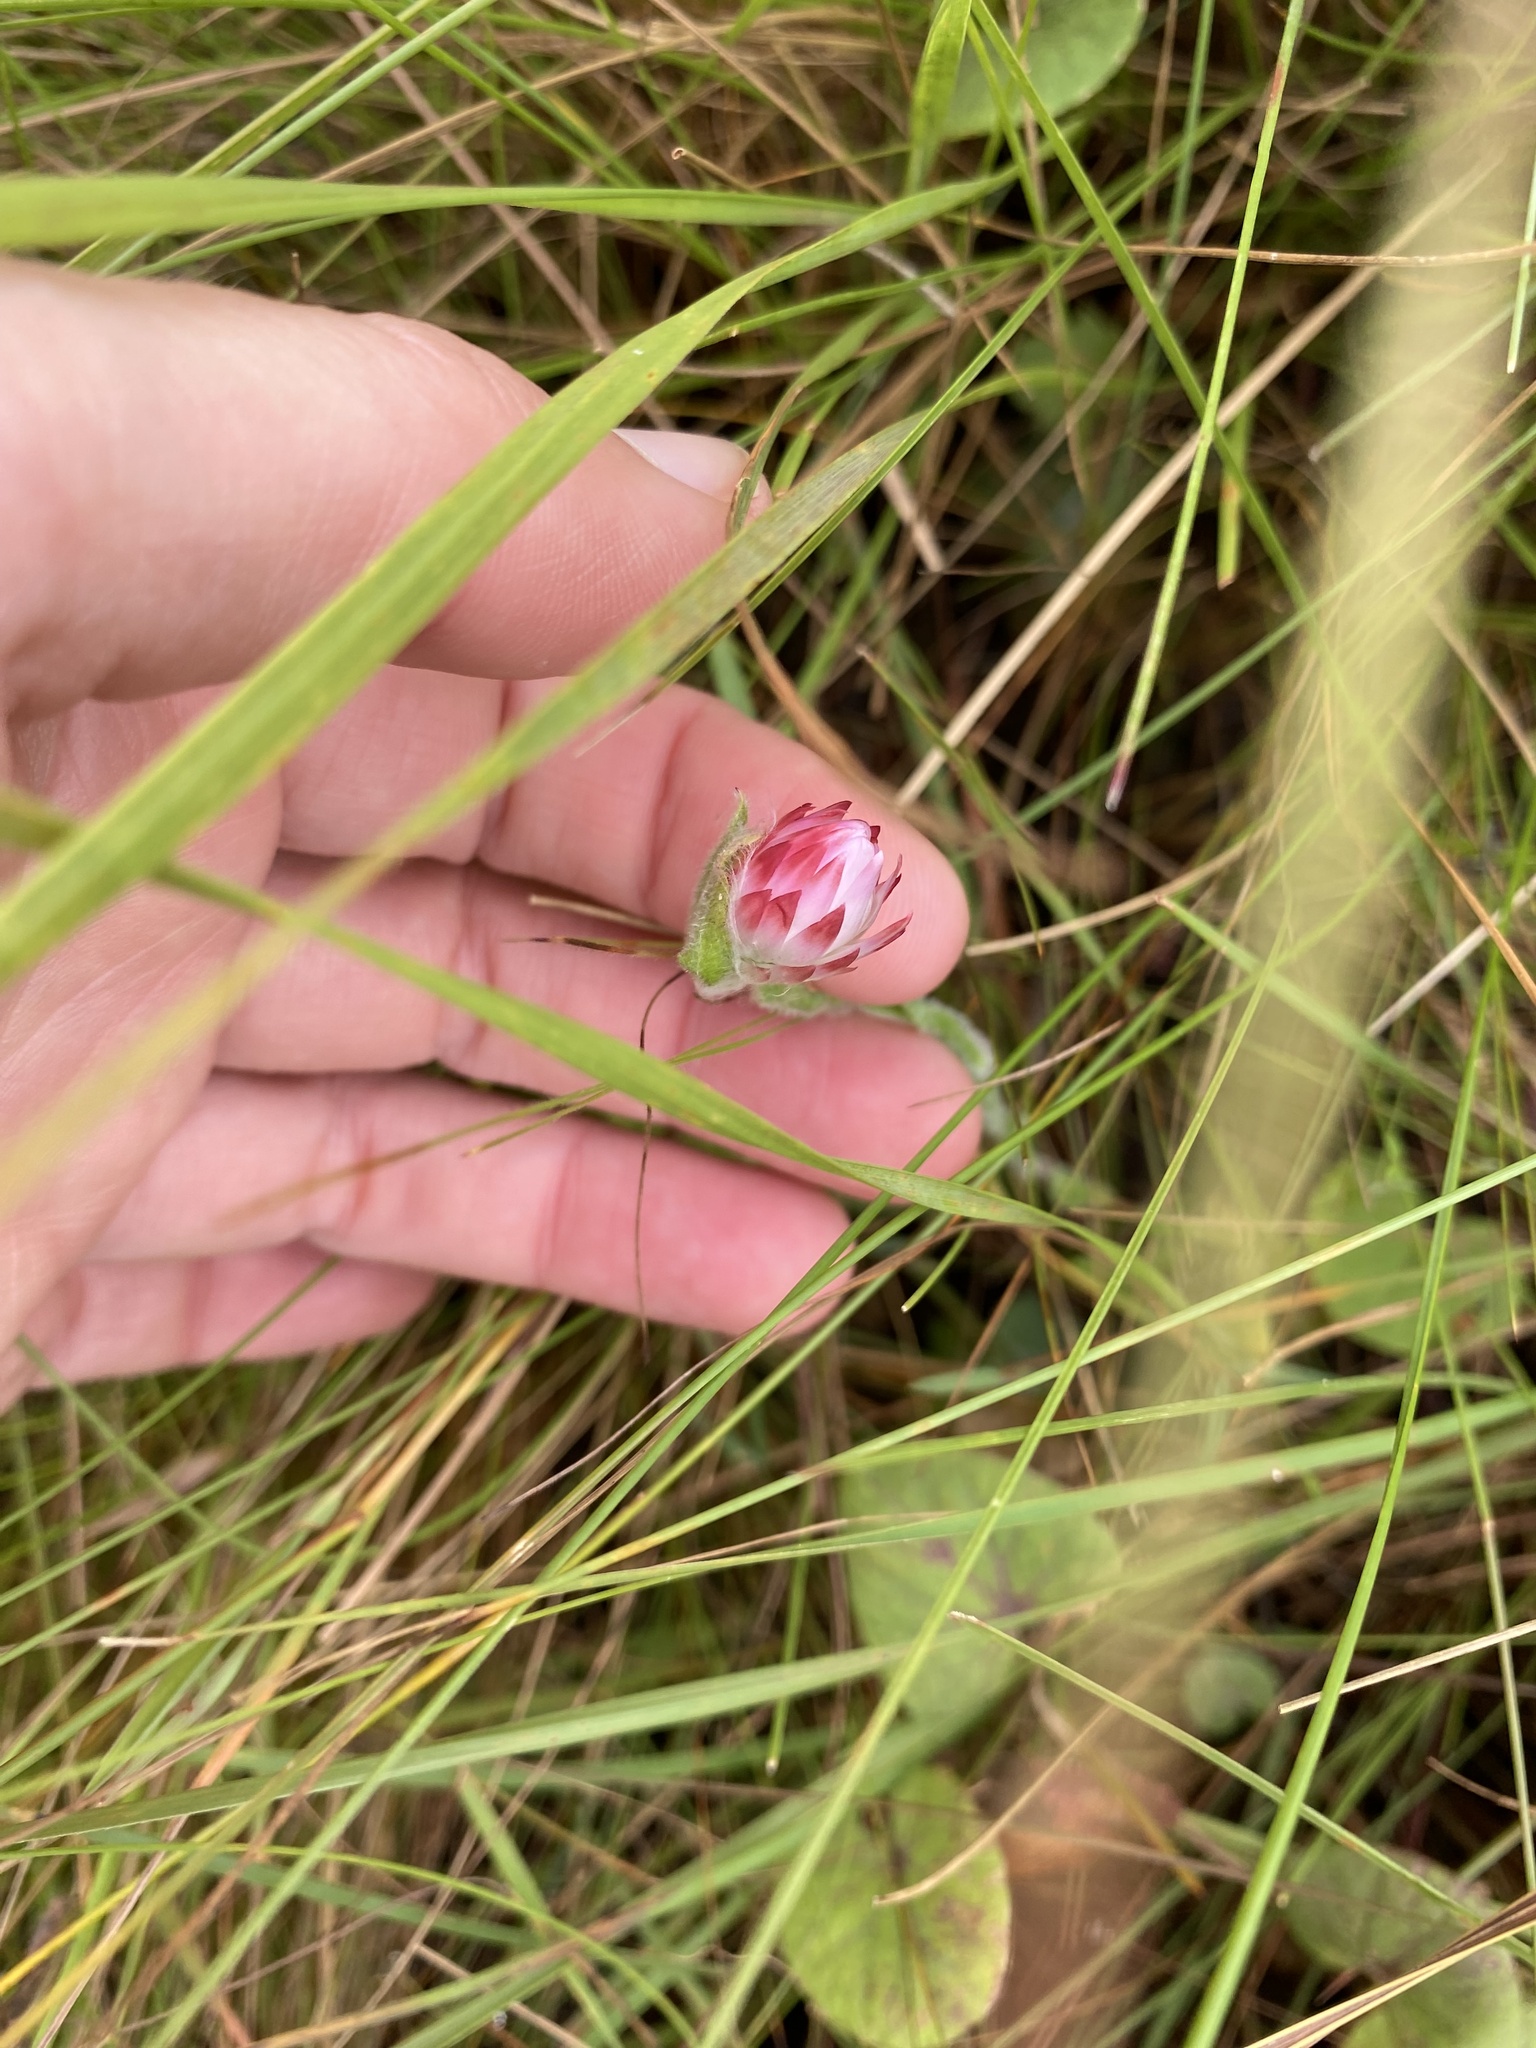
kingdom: Plantae
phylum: Tracheophyta
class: Magnoliopsida
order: Asterales
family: Asteraceae
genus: Helichrysum
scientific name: Helichrysum adenocarpum
